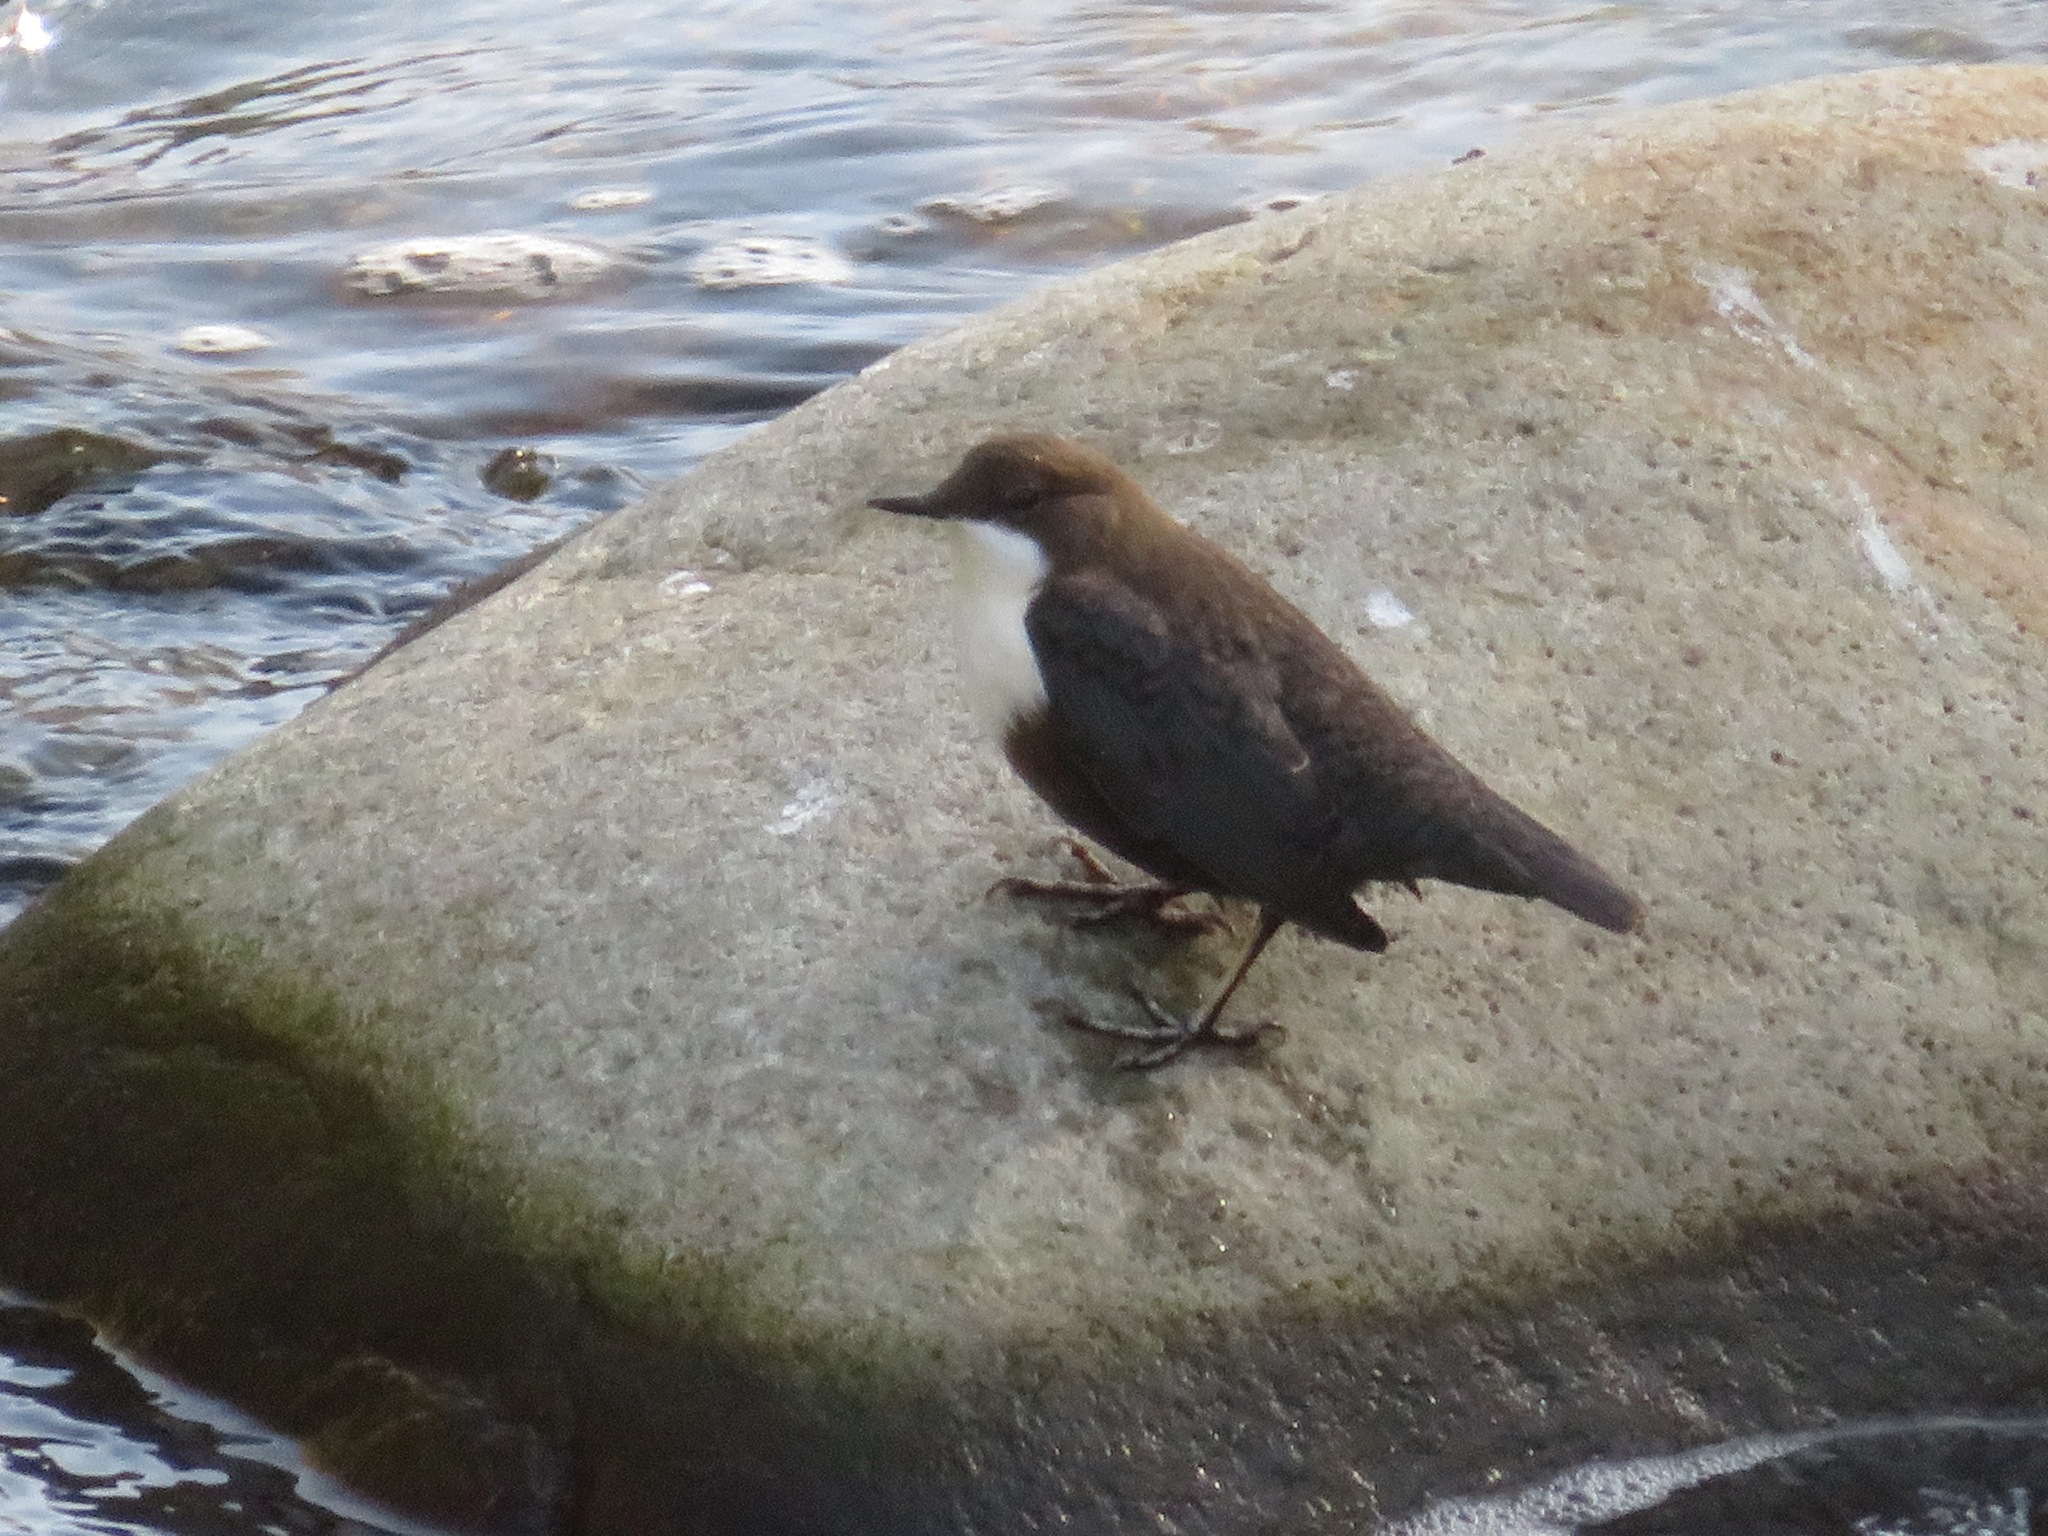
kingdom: Animalia
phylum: Chordata
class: Aves
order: Passeriformes
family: Cinclidae
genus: Cinclus
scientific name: Cinclus cinclus
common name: White-throated dipper
